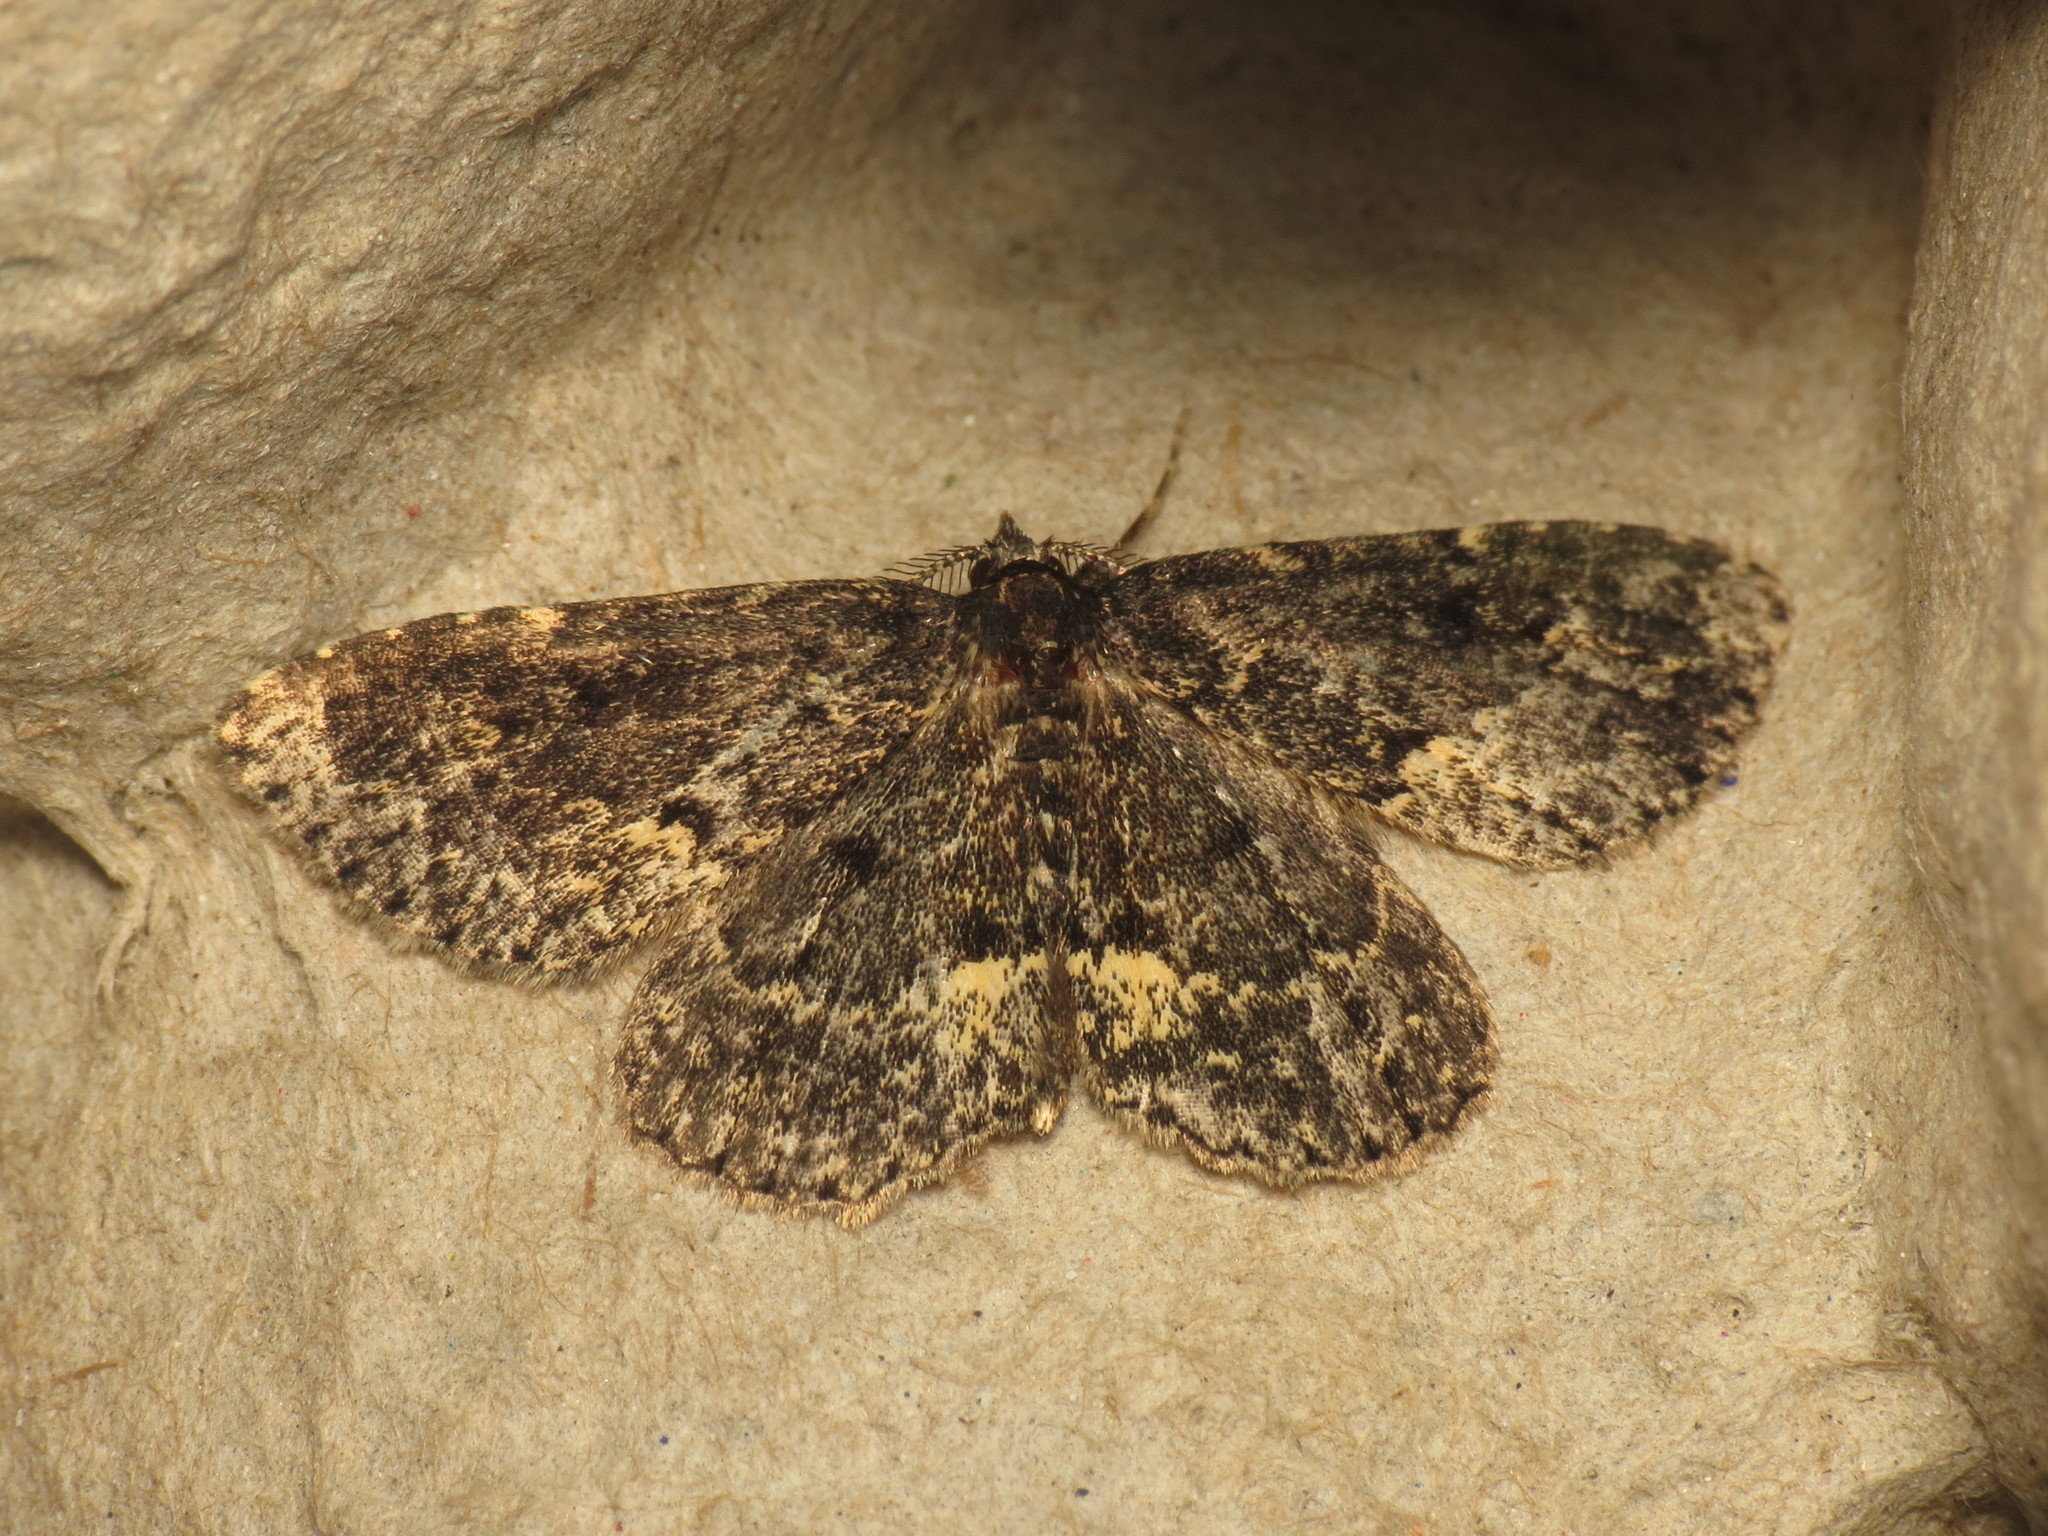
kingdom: Animalia
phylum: Arthropoda
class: Insecta
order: Lepidoptera
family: Erebidae
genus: Parascotia
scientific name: Parascotia fuliginaria
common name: Waved black
